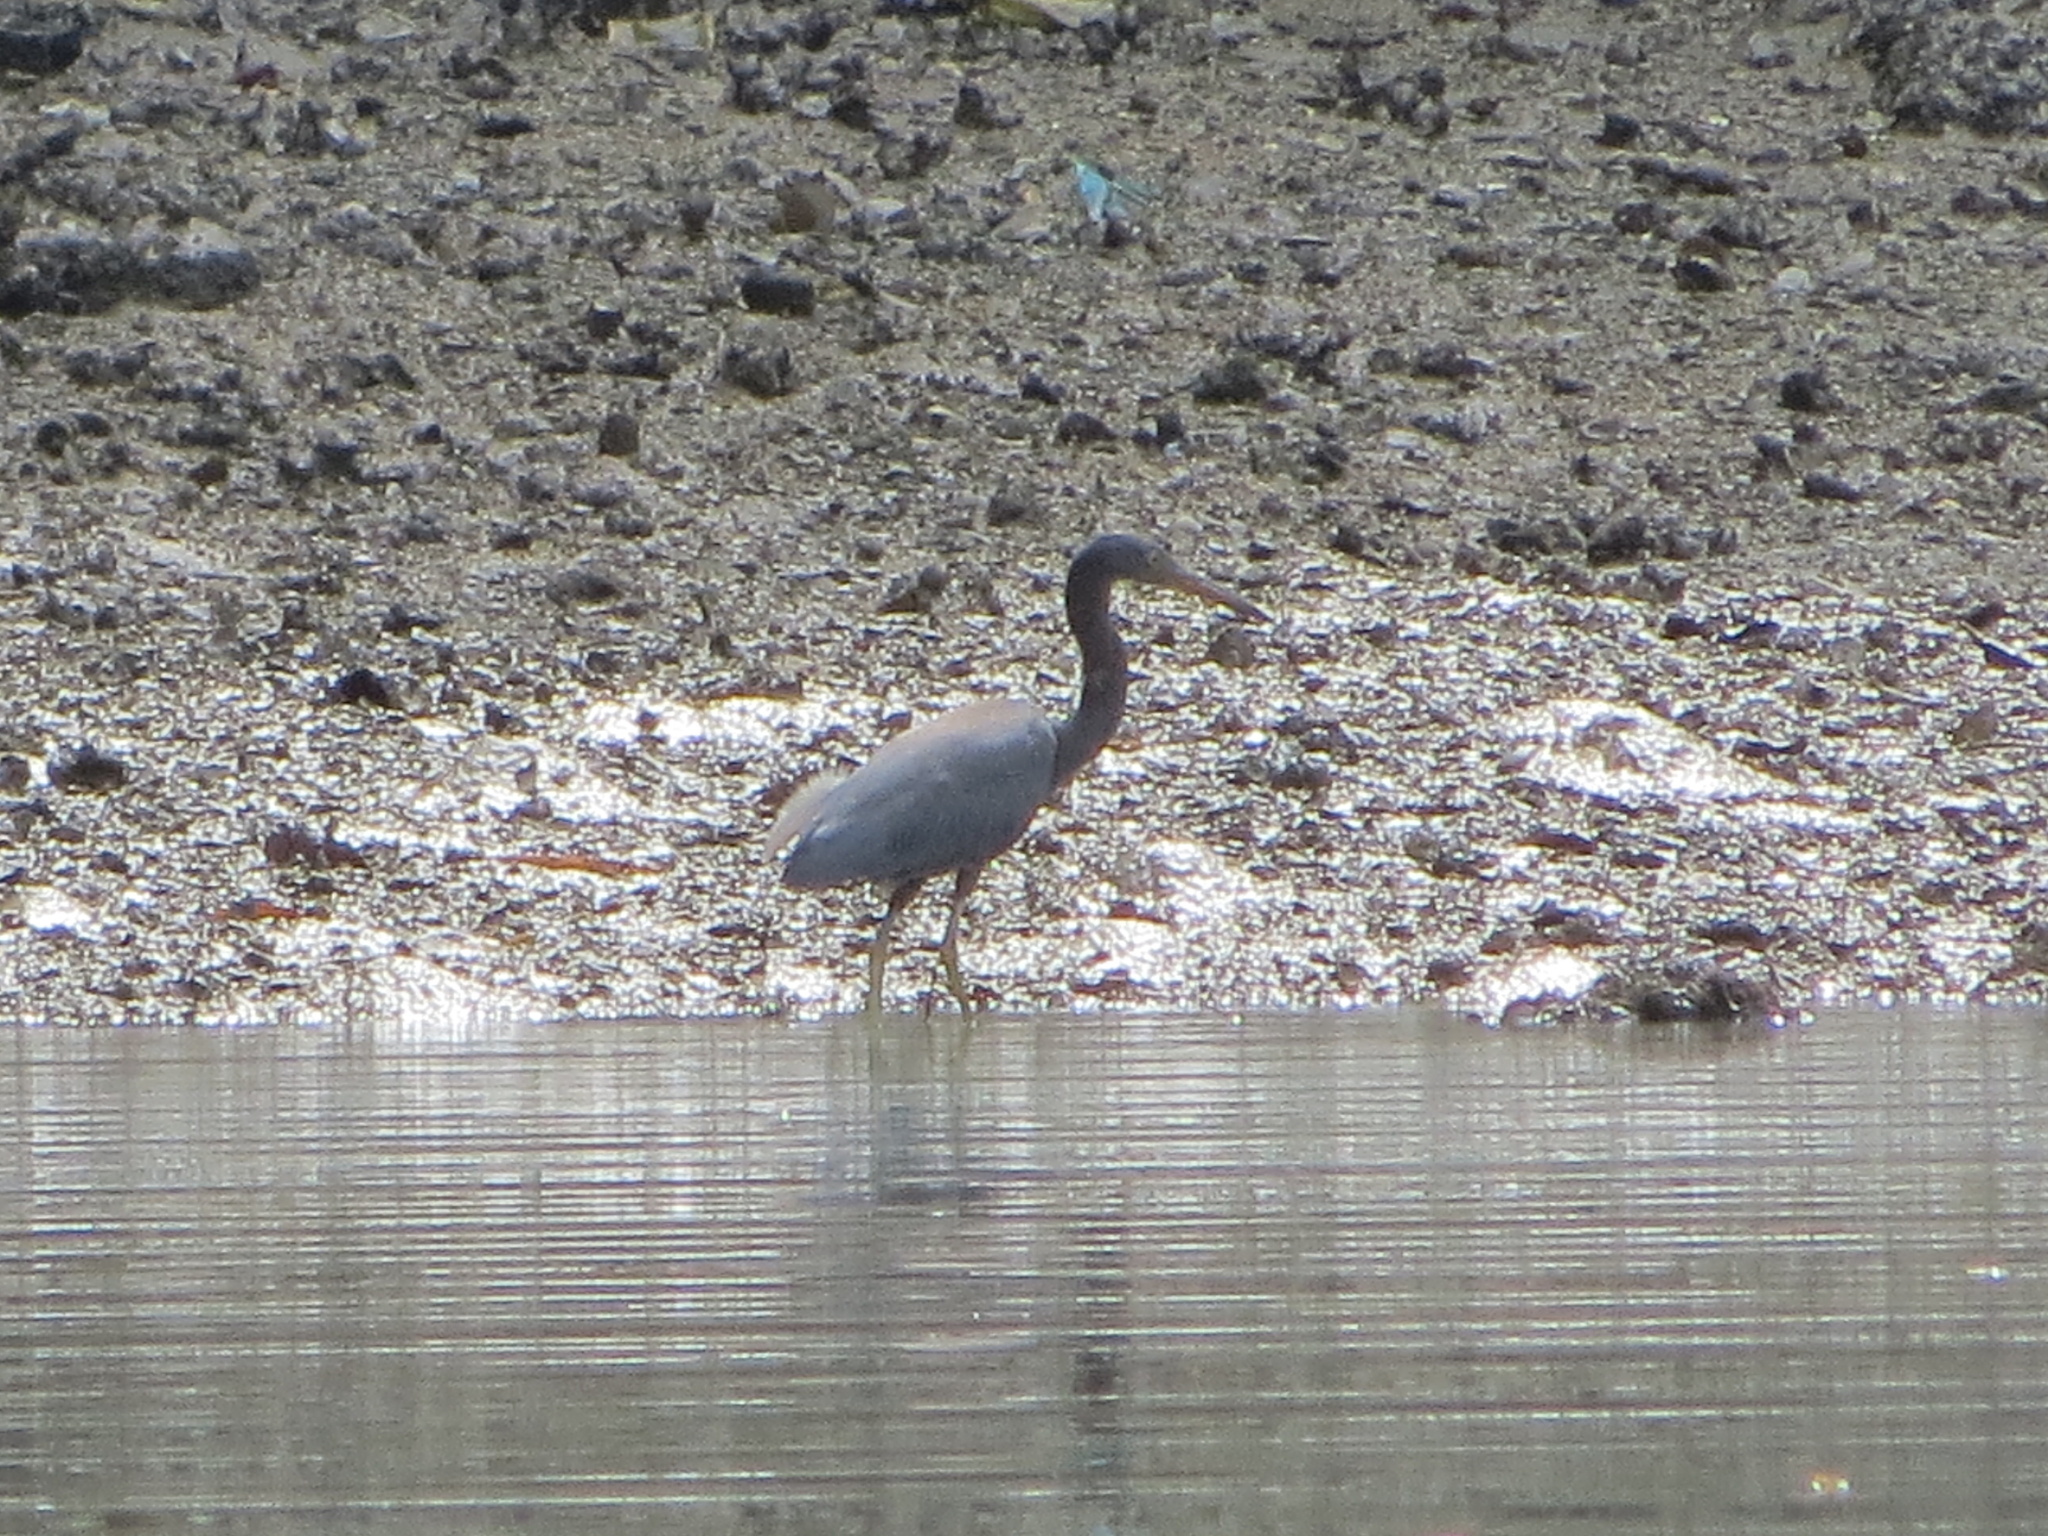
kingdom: Animalia
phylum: Chordata
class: Aves
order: Pelecaniformes
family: Ardeidae
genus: Egretta
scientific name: Egretta sacra
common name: Pacific reef heron
